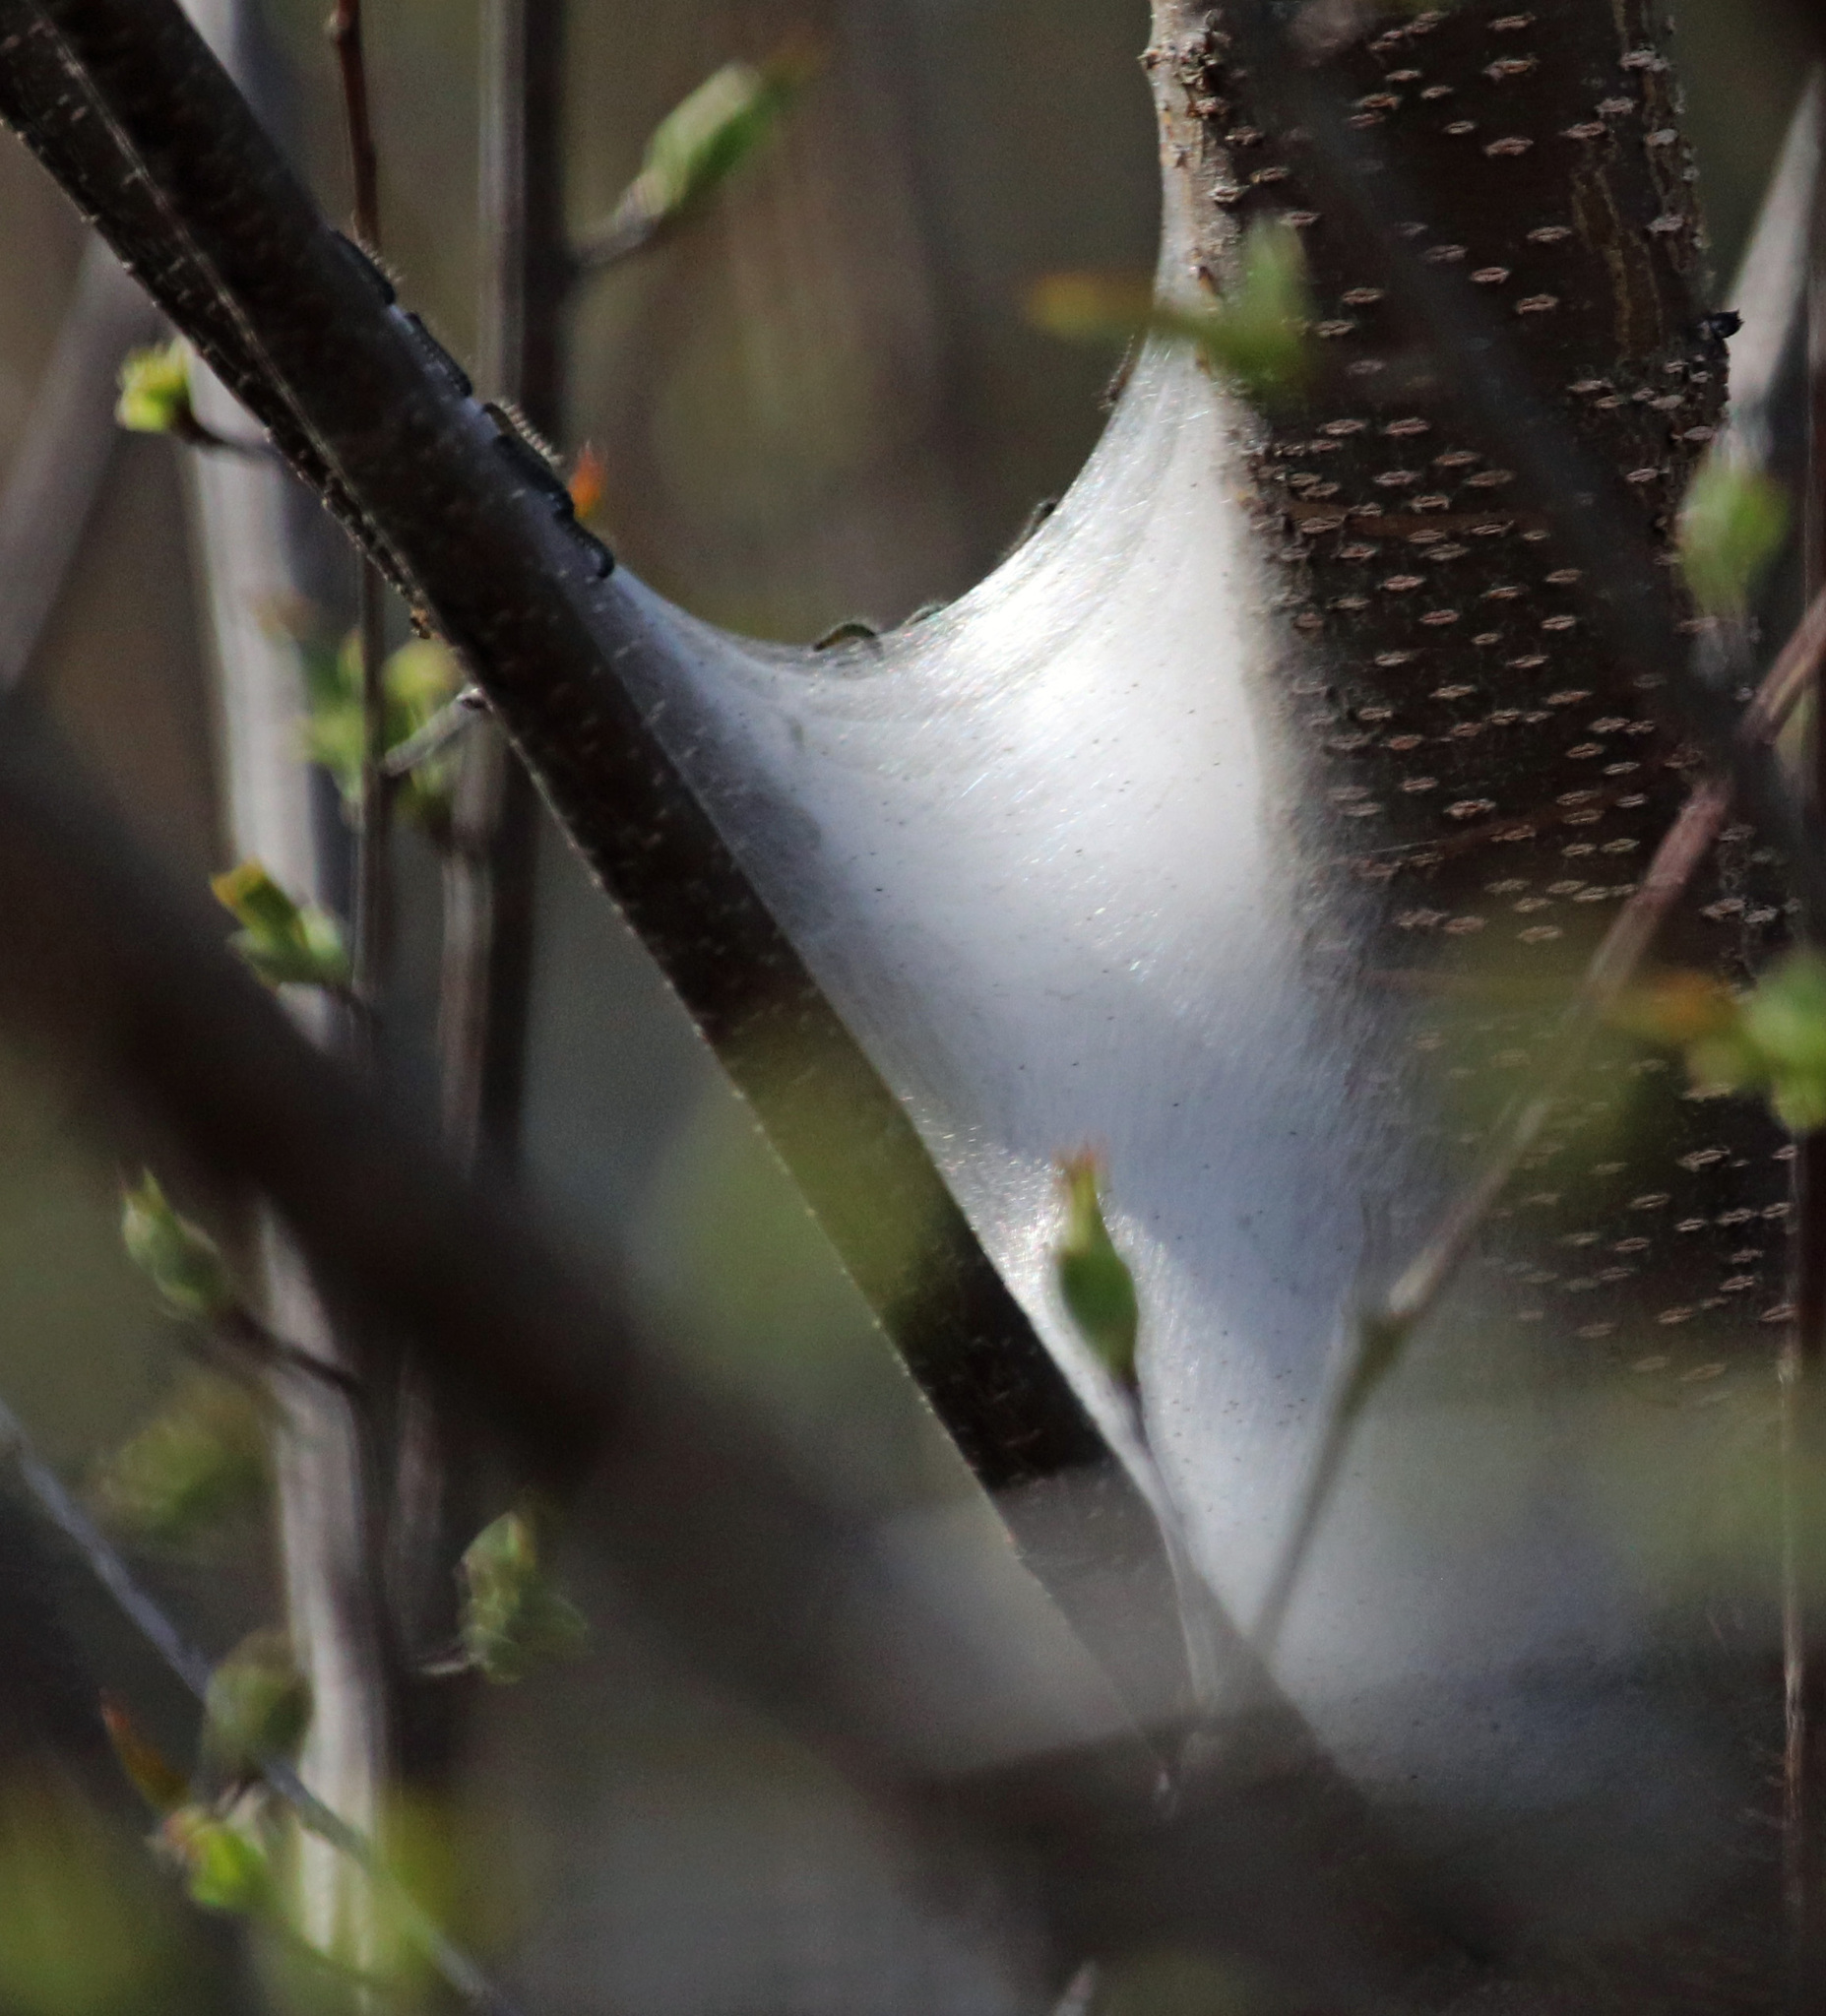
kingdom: Animalia
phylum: Arthropoda
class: Insecta
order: Lepidoptera
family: Lasiocampidae
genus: Malacosoma
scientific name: Malacosoma americana
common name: Eastern tent caterpillar moth
